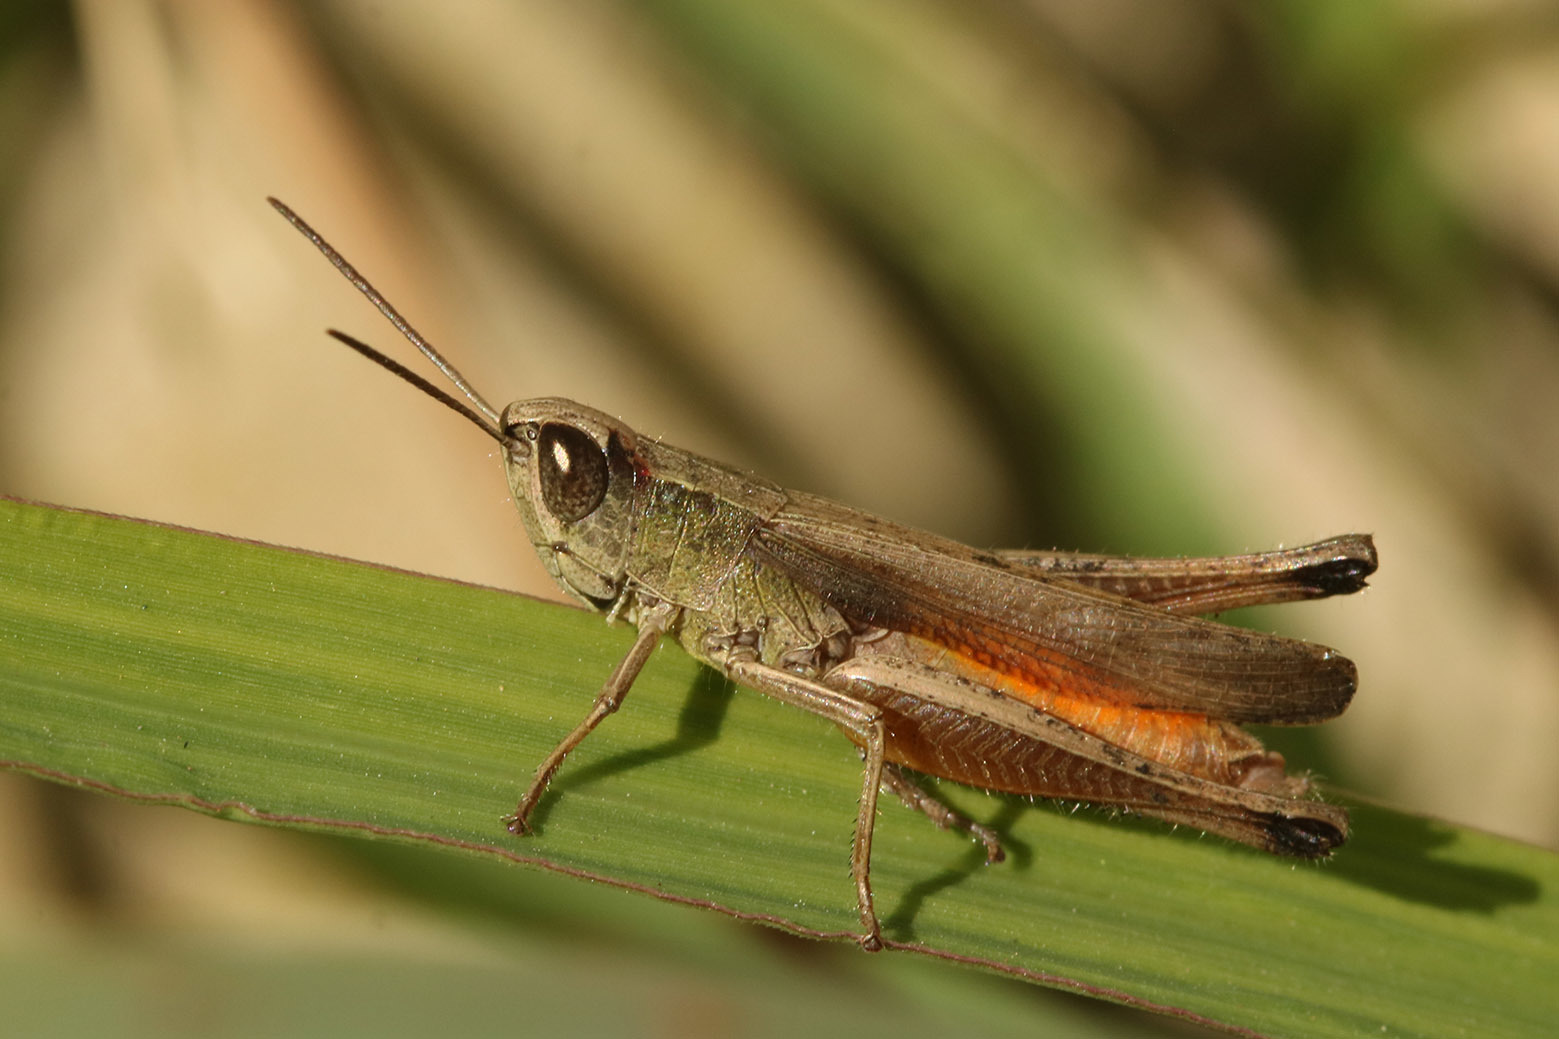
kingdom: Animalia
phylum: Arthropoda
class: Insecta
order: Orthoptera
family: Acrididae
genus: Amblytropidia
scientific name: Amblytropidia australis
